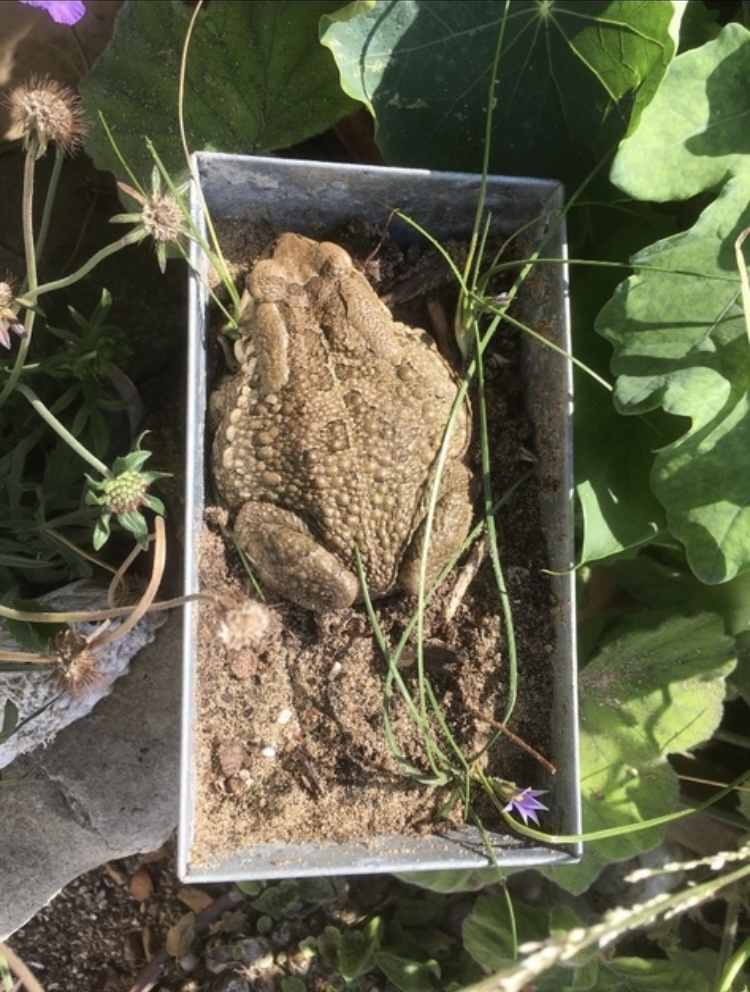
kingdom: Animalia
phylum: Chordata
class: Amphibia
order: Anura
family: Bufonidae
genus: Sclerophrys
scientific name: Sclerophrys capensis
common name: Ranger’s toad
